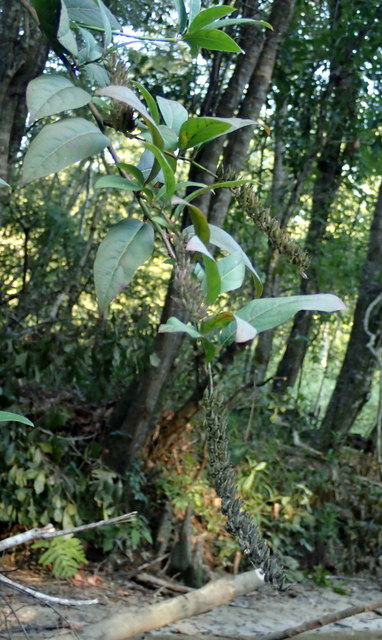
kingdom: Plantae
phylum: Tracheophyta
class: Magnoliopsida
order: Saxifragales
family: Iteaceae
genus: Itea
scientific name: Itea virginica
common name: Sweetspire
